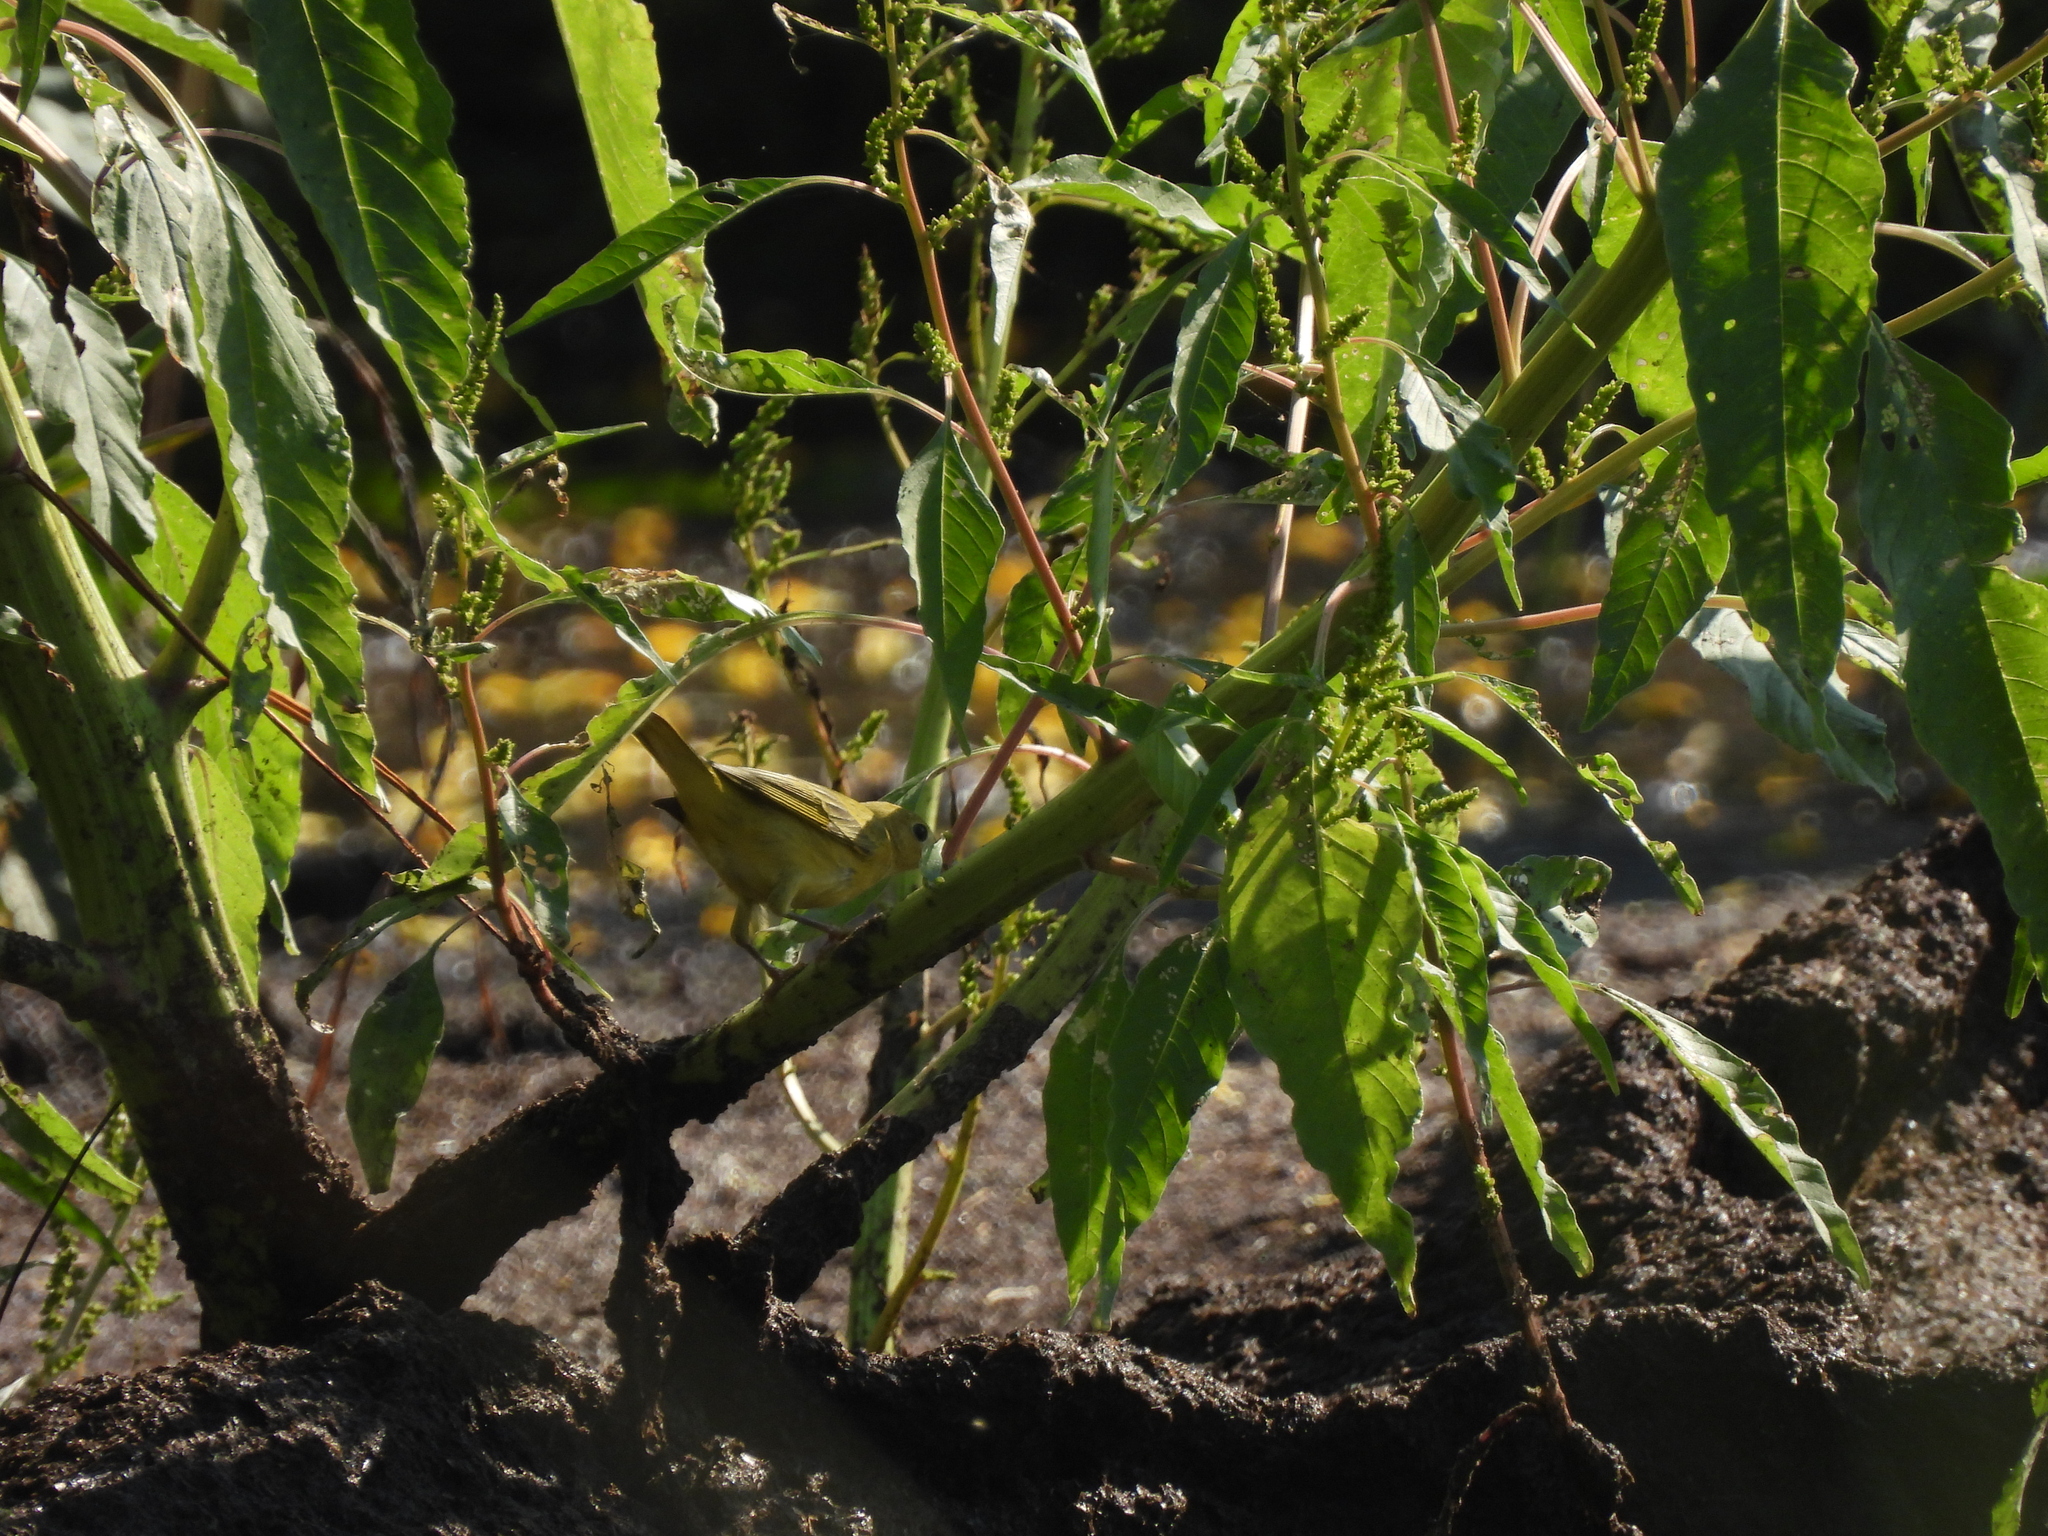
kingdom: Animalia
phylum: Chordata
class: Aves
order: Passeriformes
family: Parulidae
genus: Setophaga
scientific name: Setophaga petechia
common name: Yellow warbler
